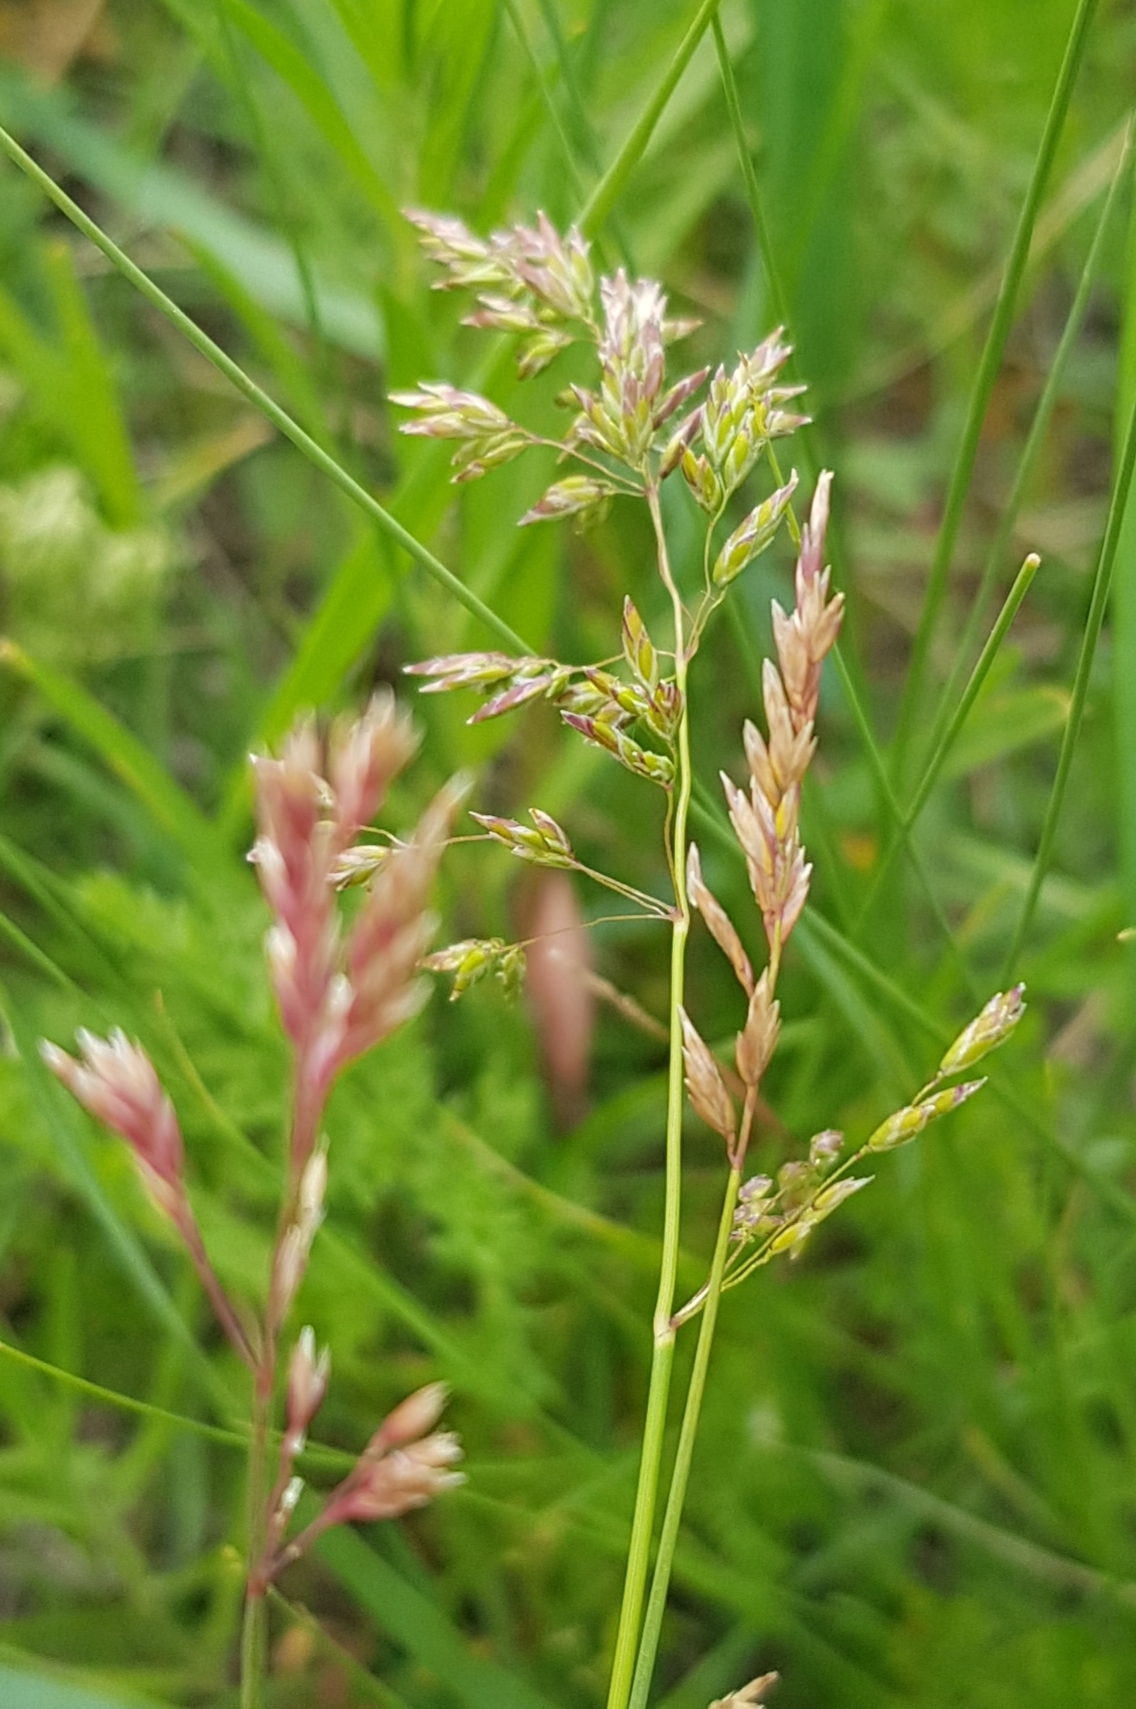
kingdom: Plantae
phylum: Tracheophyta
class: Liliopsida
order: Poales
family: Poaceae
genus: Poa
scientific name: Poa pratensis
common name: Kentucky bluegrass
